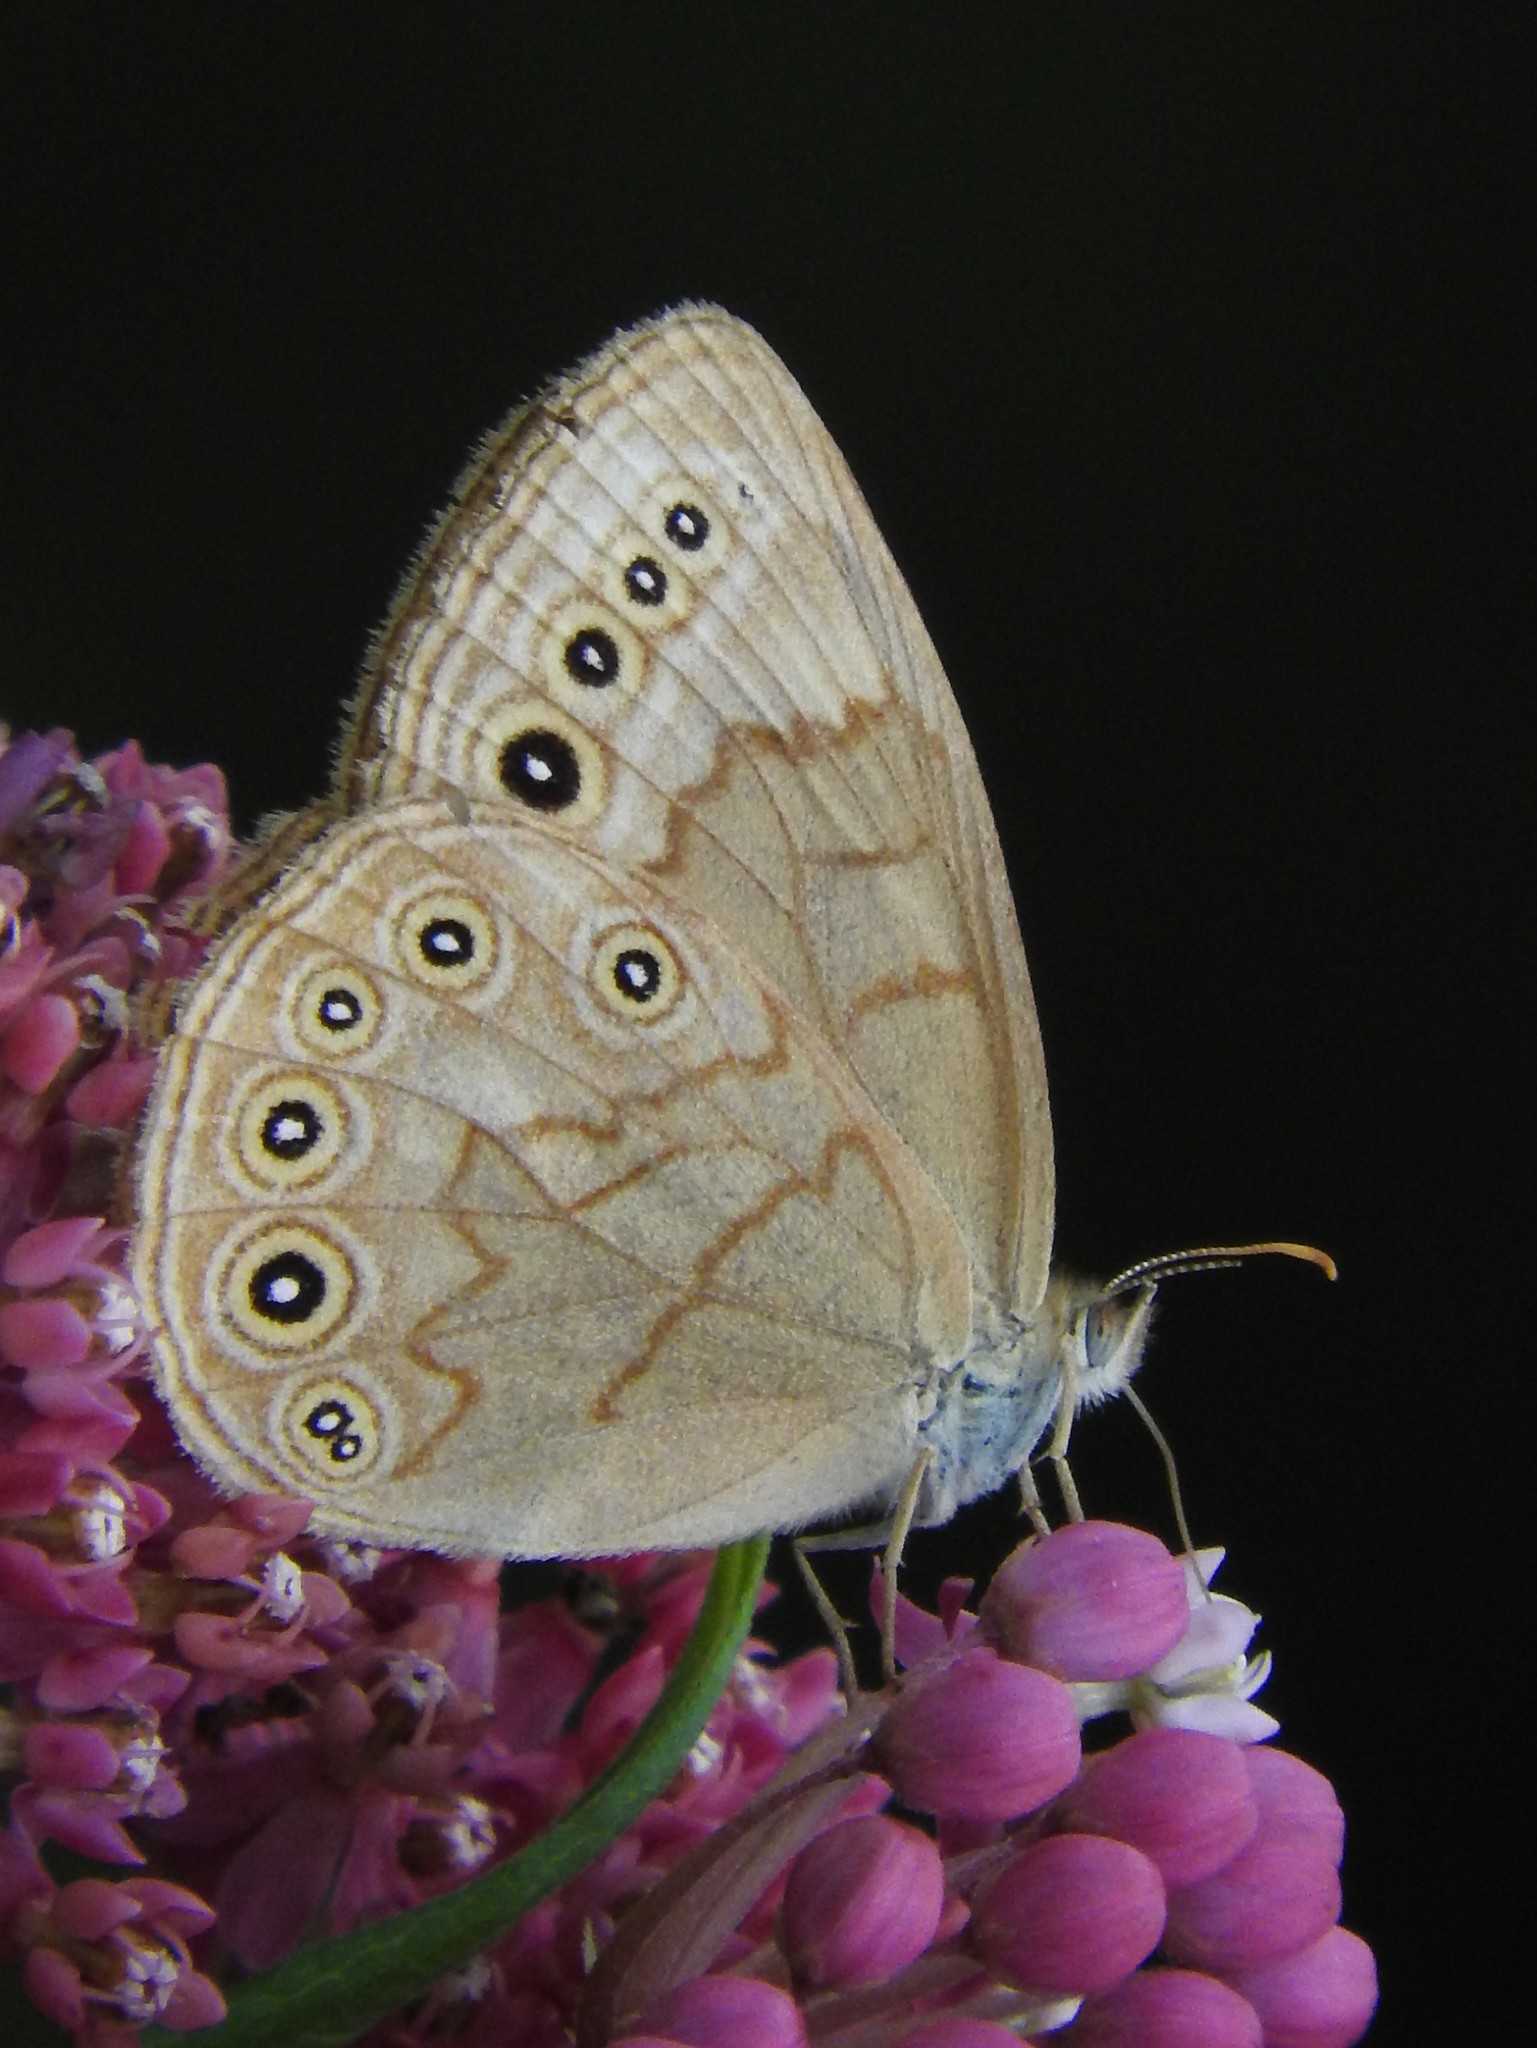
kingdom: Animalia
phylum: Arthropoda
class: Insecta
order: Lepidoptera
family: Nymphalidae
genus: Lethe
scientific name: Lethe eurydice
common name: Eyed brown
